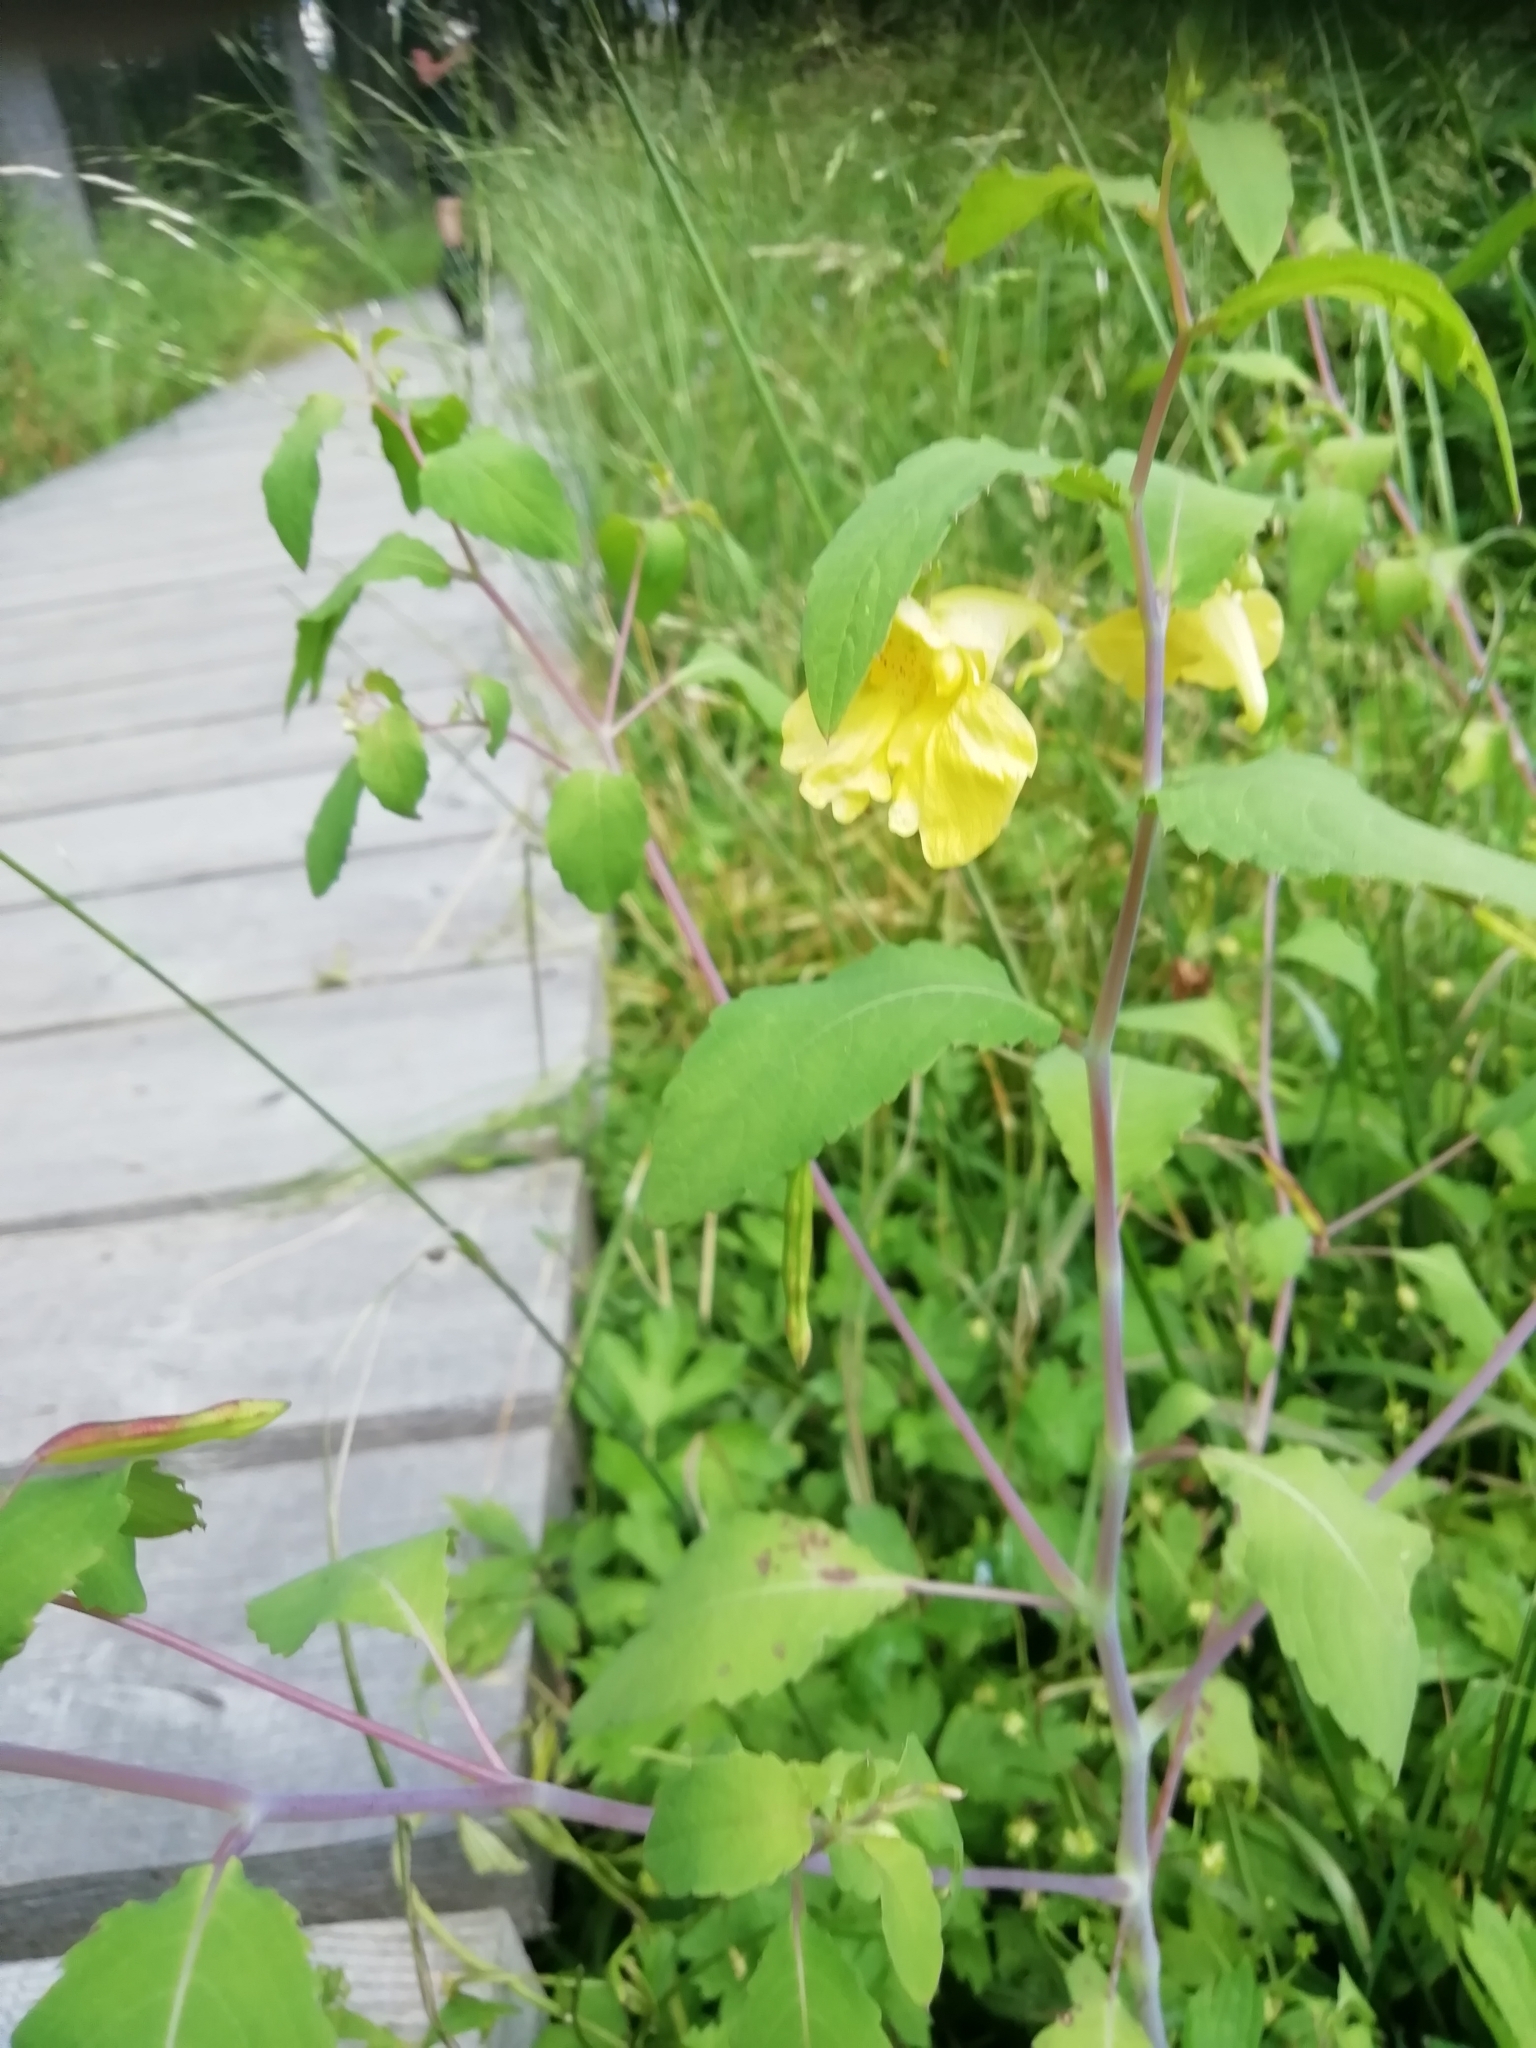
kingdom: Plantae
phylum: Tracheophyta
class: Magnoliopsida
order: Ericales
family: Balsaminaceae
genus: Impatiens
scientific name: Impatiens noli-tangere
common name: Touch-me-not balsam
